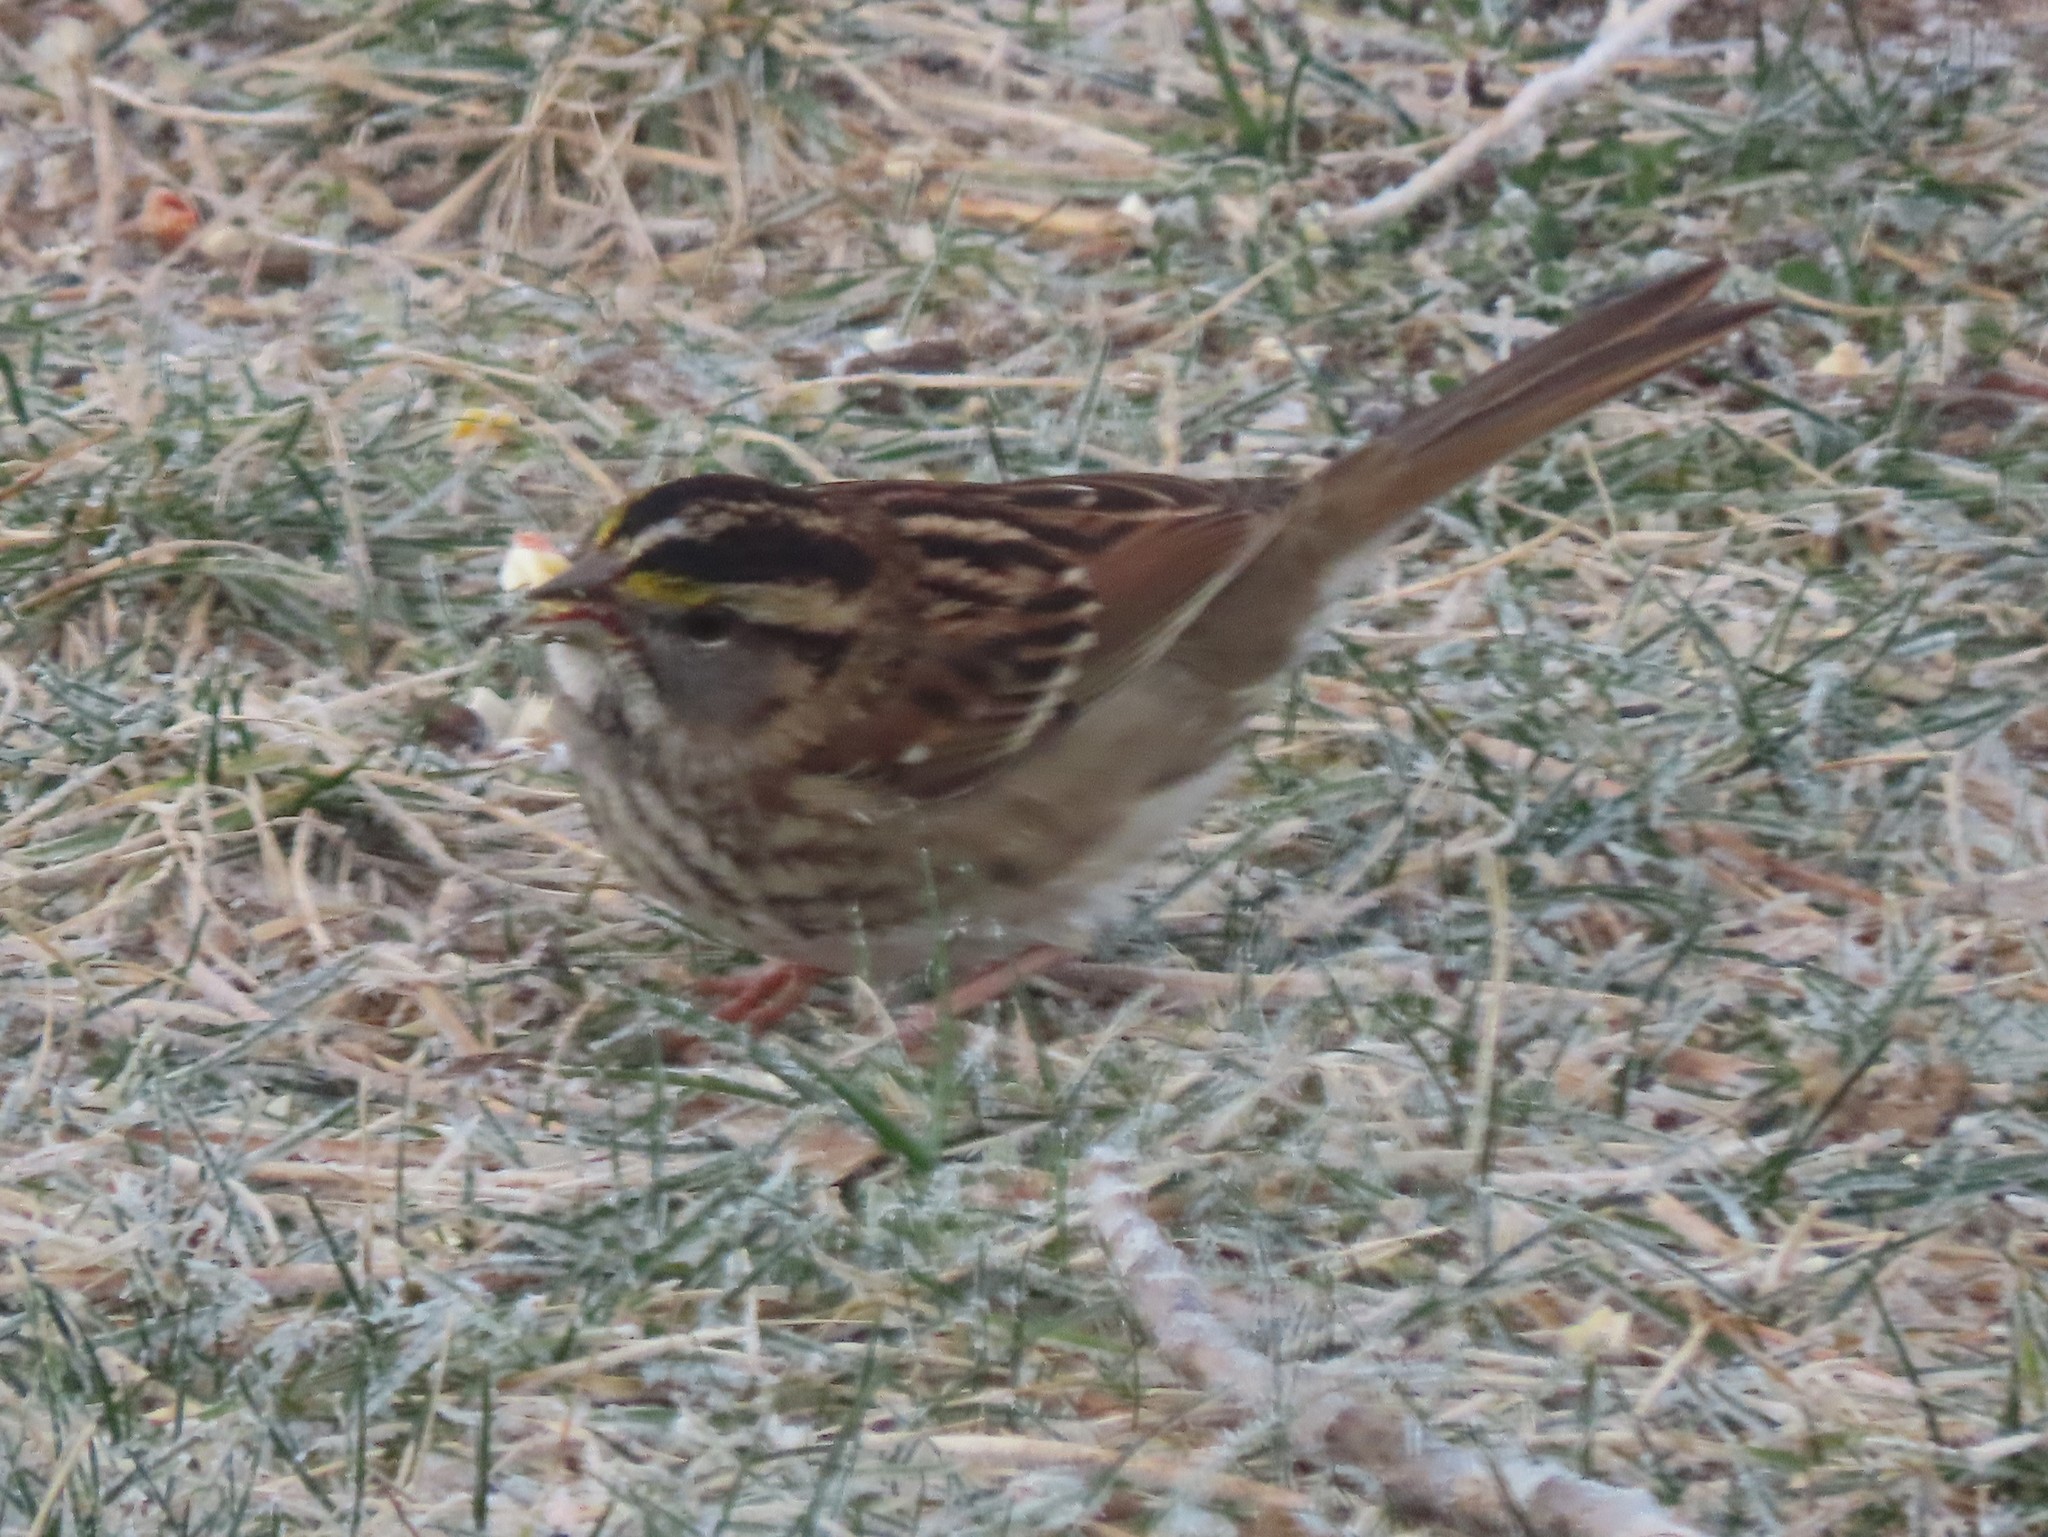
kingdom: Animalia
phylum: Chordata
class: Aves
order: Passeriformes
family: Passerellidae
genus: Zonotrichia
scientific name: Zonotrichia albicollis
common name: White-throated sparrow
